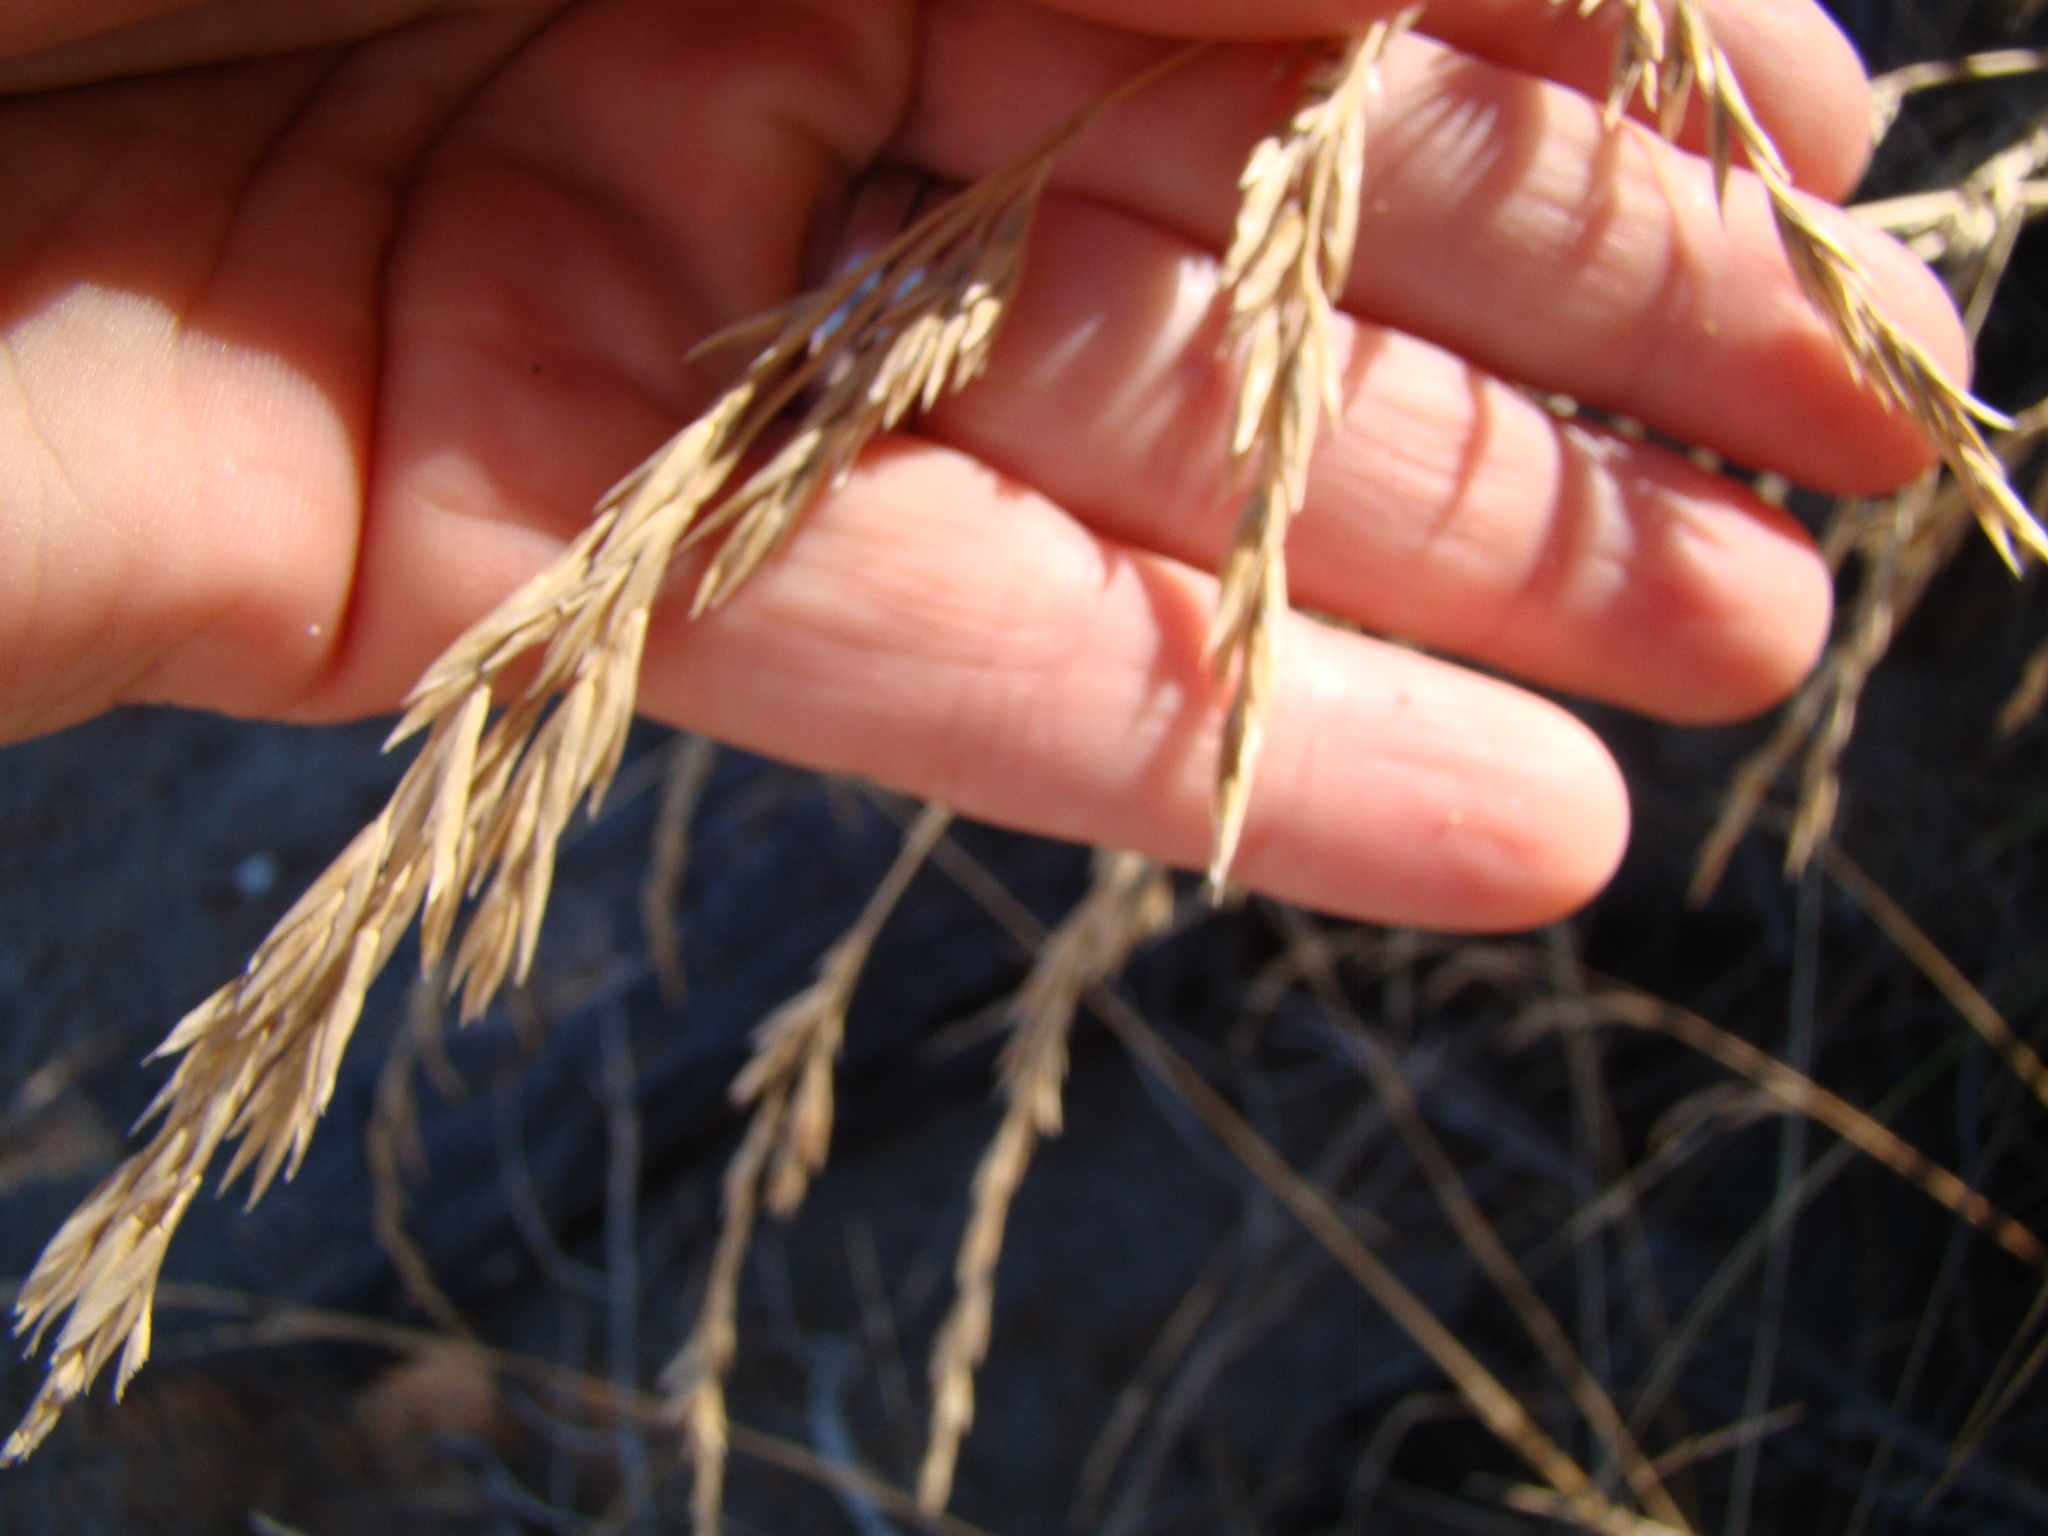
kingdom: Plantae
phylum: Tracheophyta
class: Liliopsida
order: Poales
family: Poaceae
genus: Lolium
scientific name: Lolium arundinaceum
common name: Reed fescue
